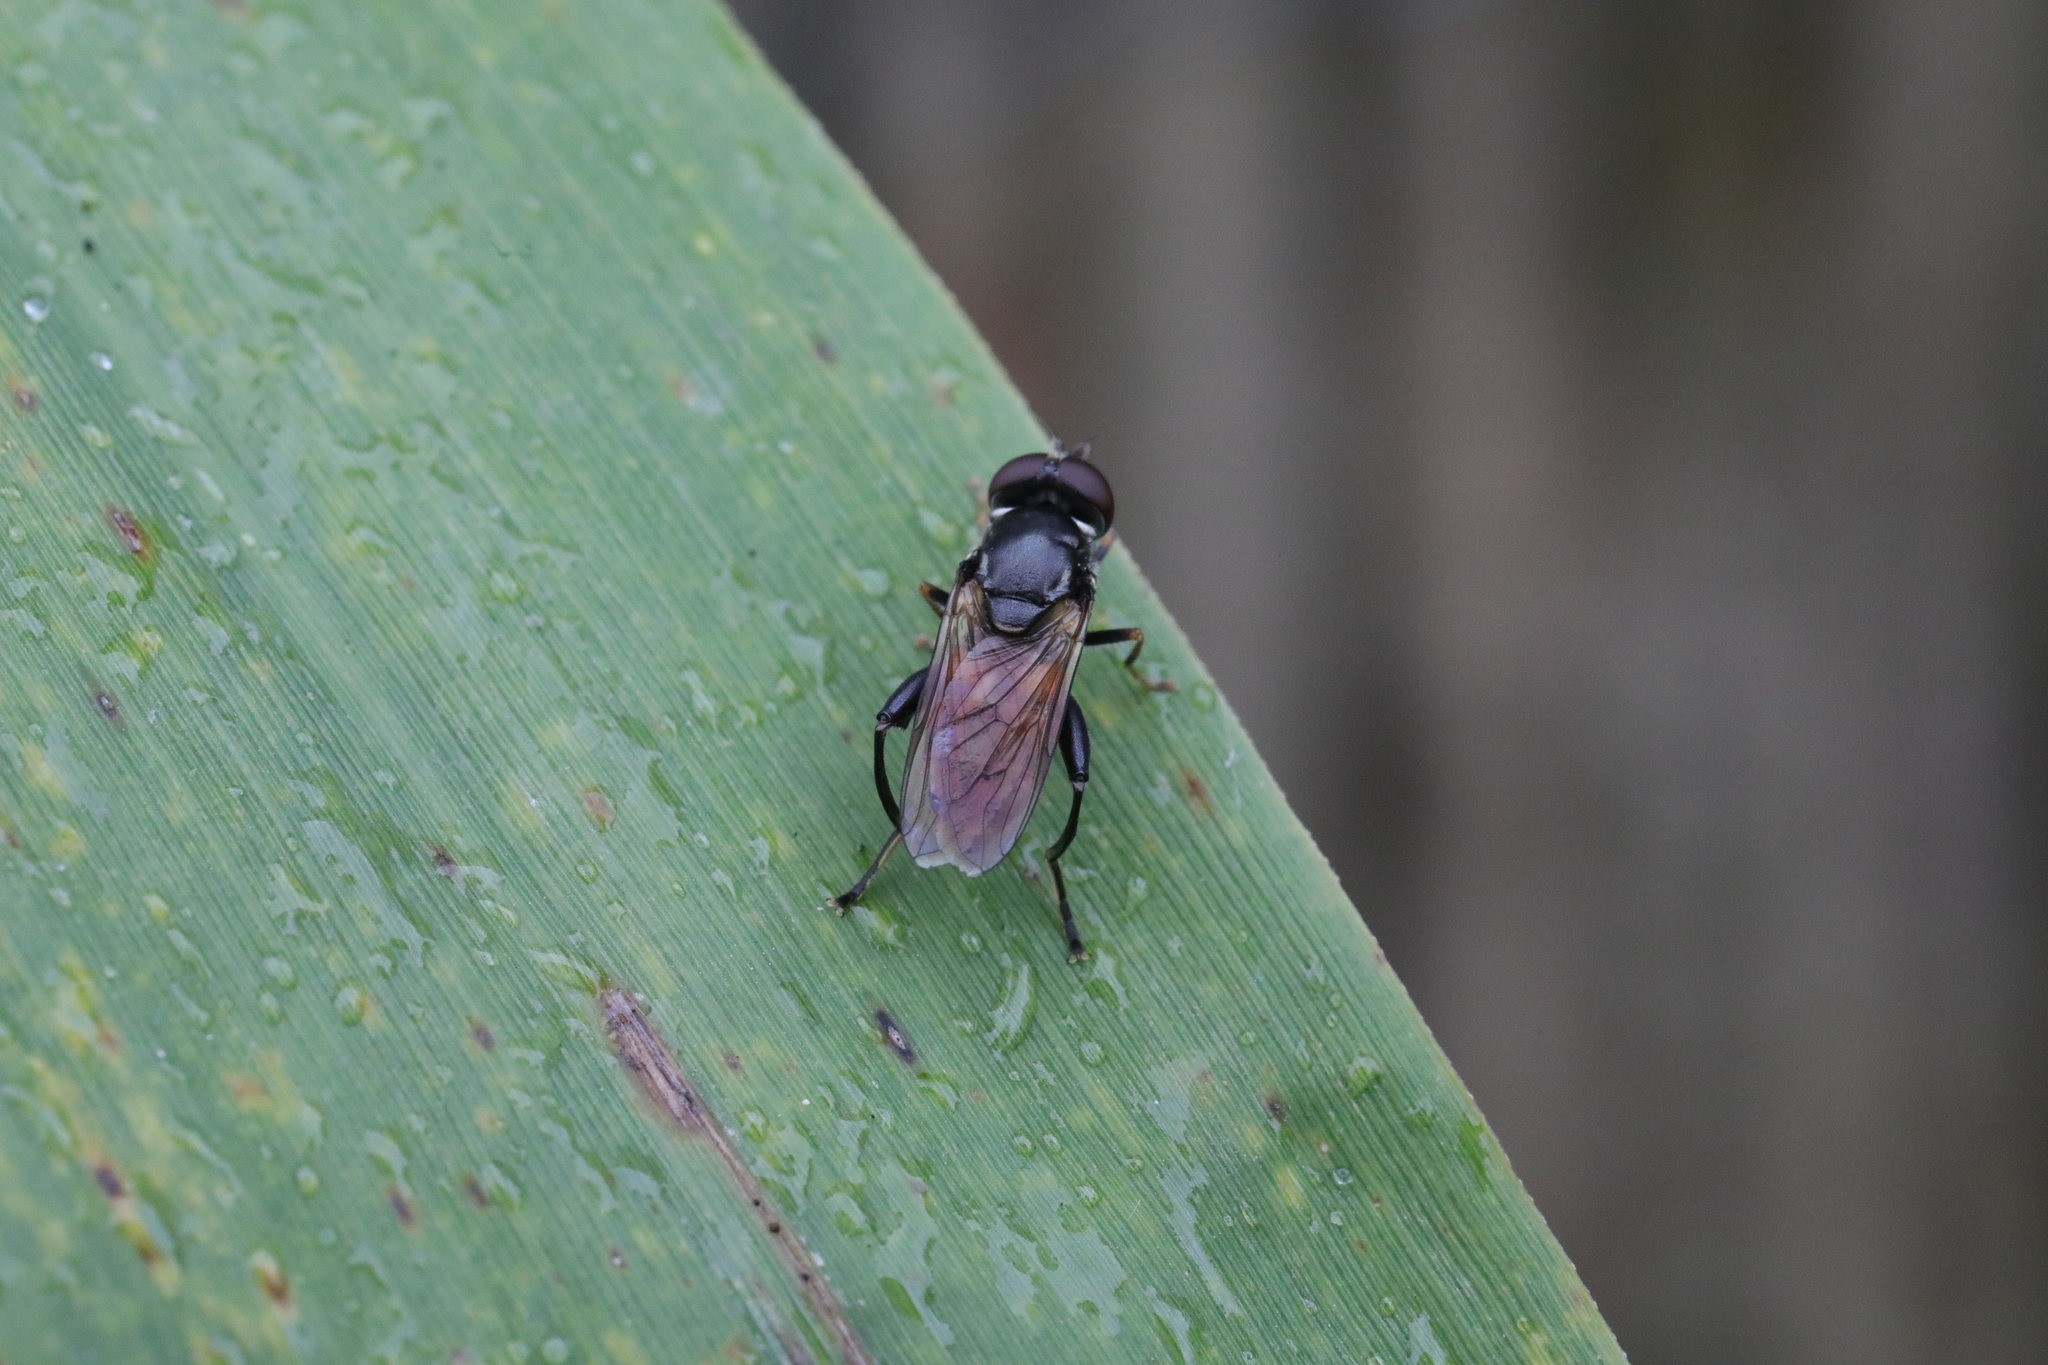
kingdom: Animalia
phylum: Arthropoda
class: Insecta
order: Diptera
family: Syrphidae
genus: Tropidia
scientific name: Tropidia scita
